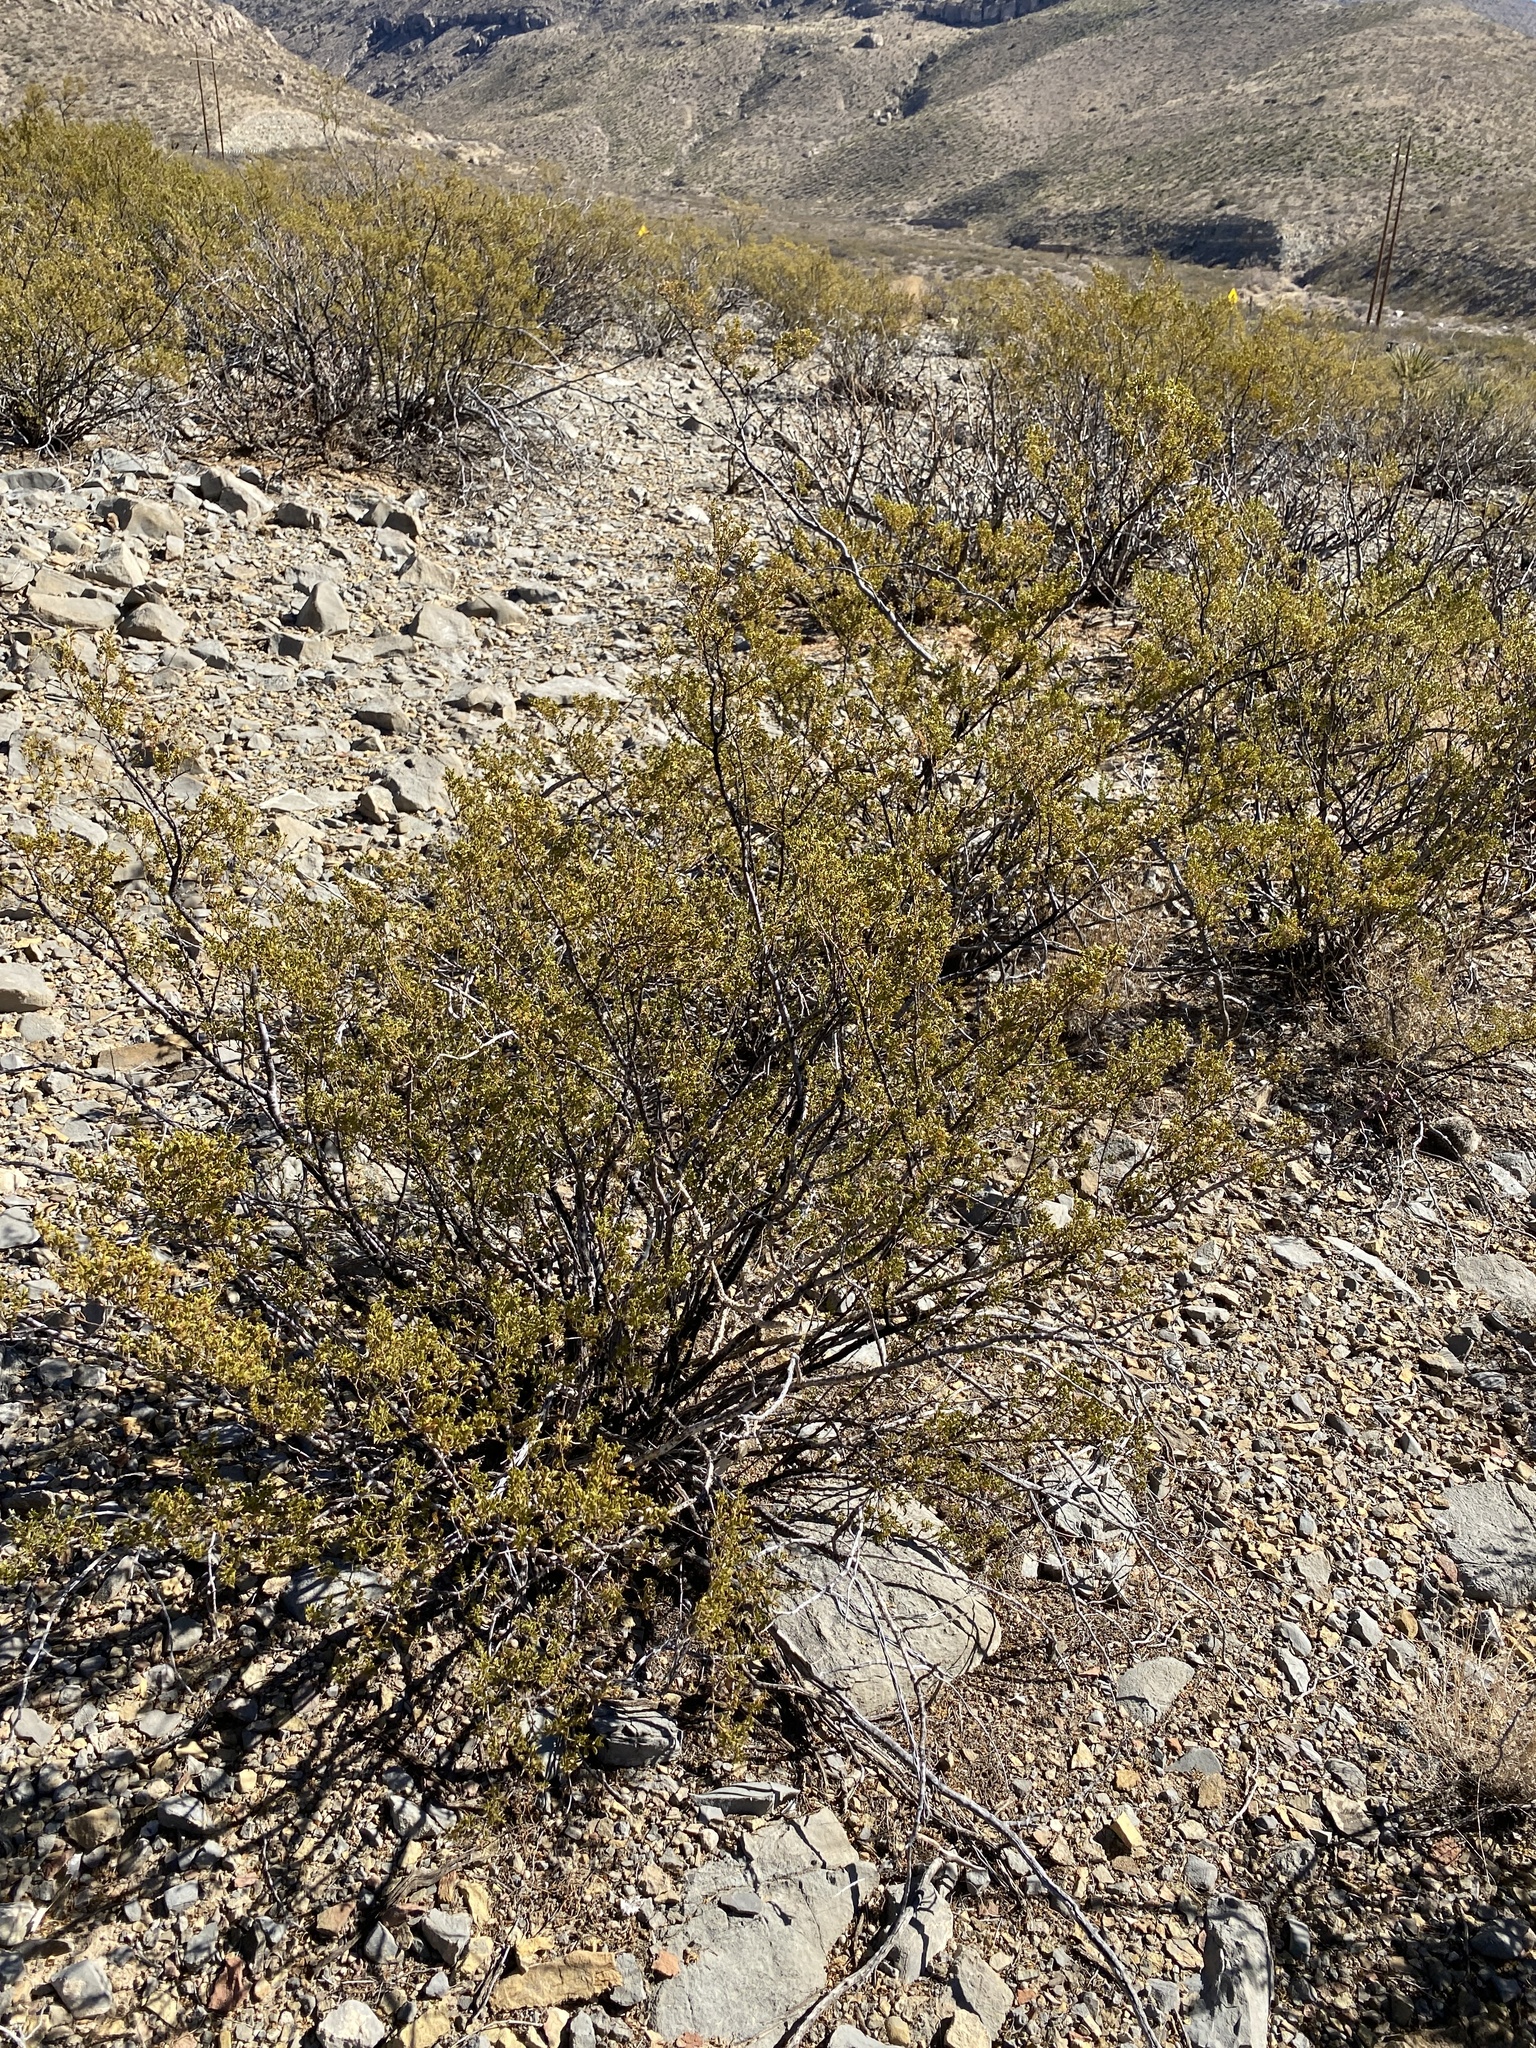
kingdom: Plantae
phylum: Tracheophyta
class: Magnoliopsida
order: Zygophyllales
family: Zygophyllaceae
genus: Larrea
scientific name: Larrea tridentata
